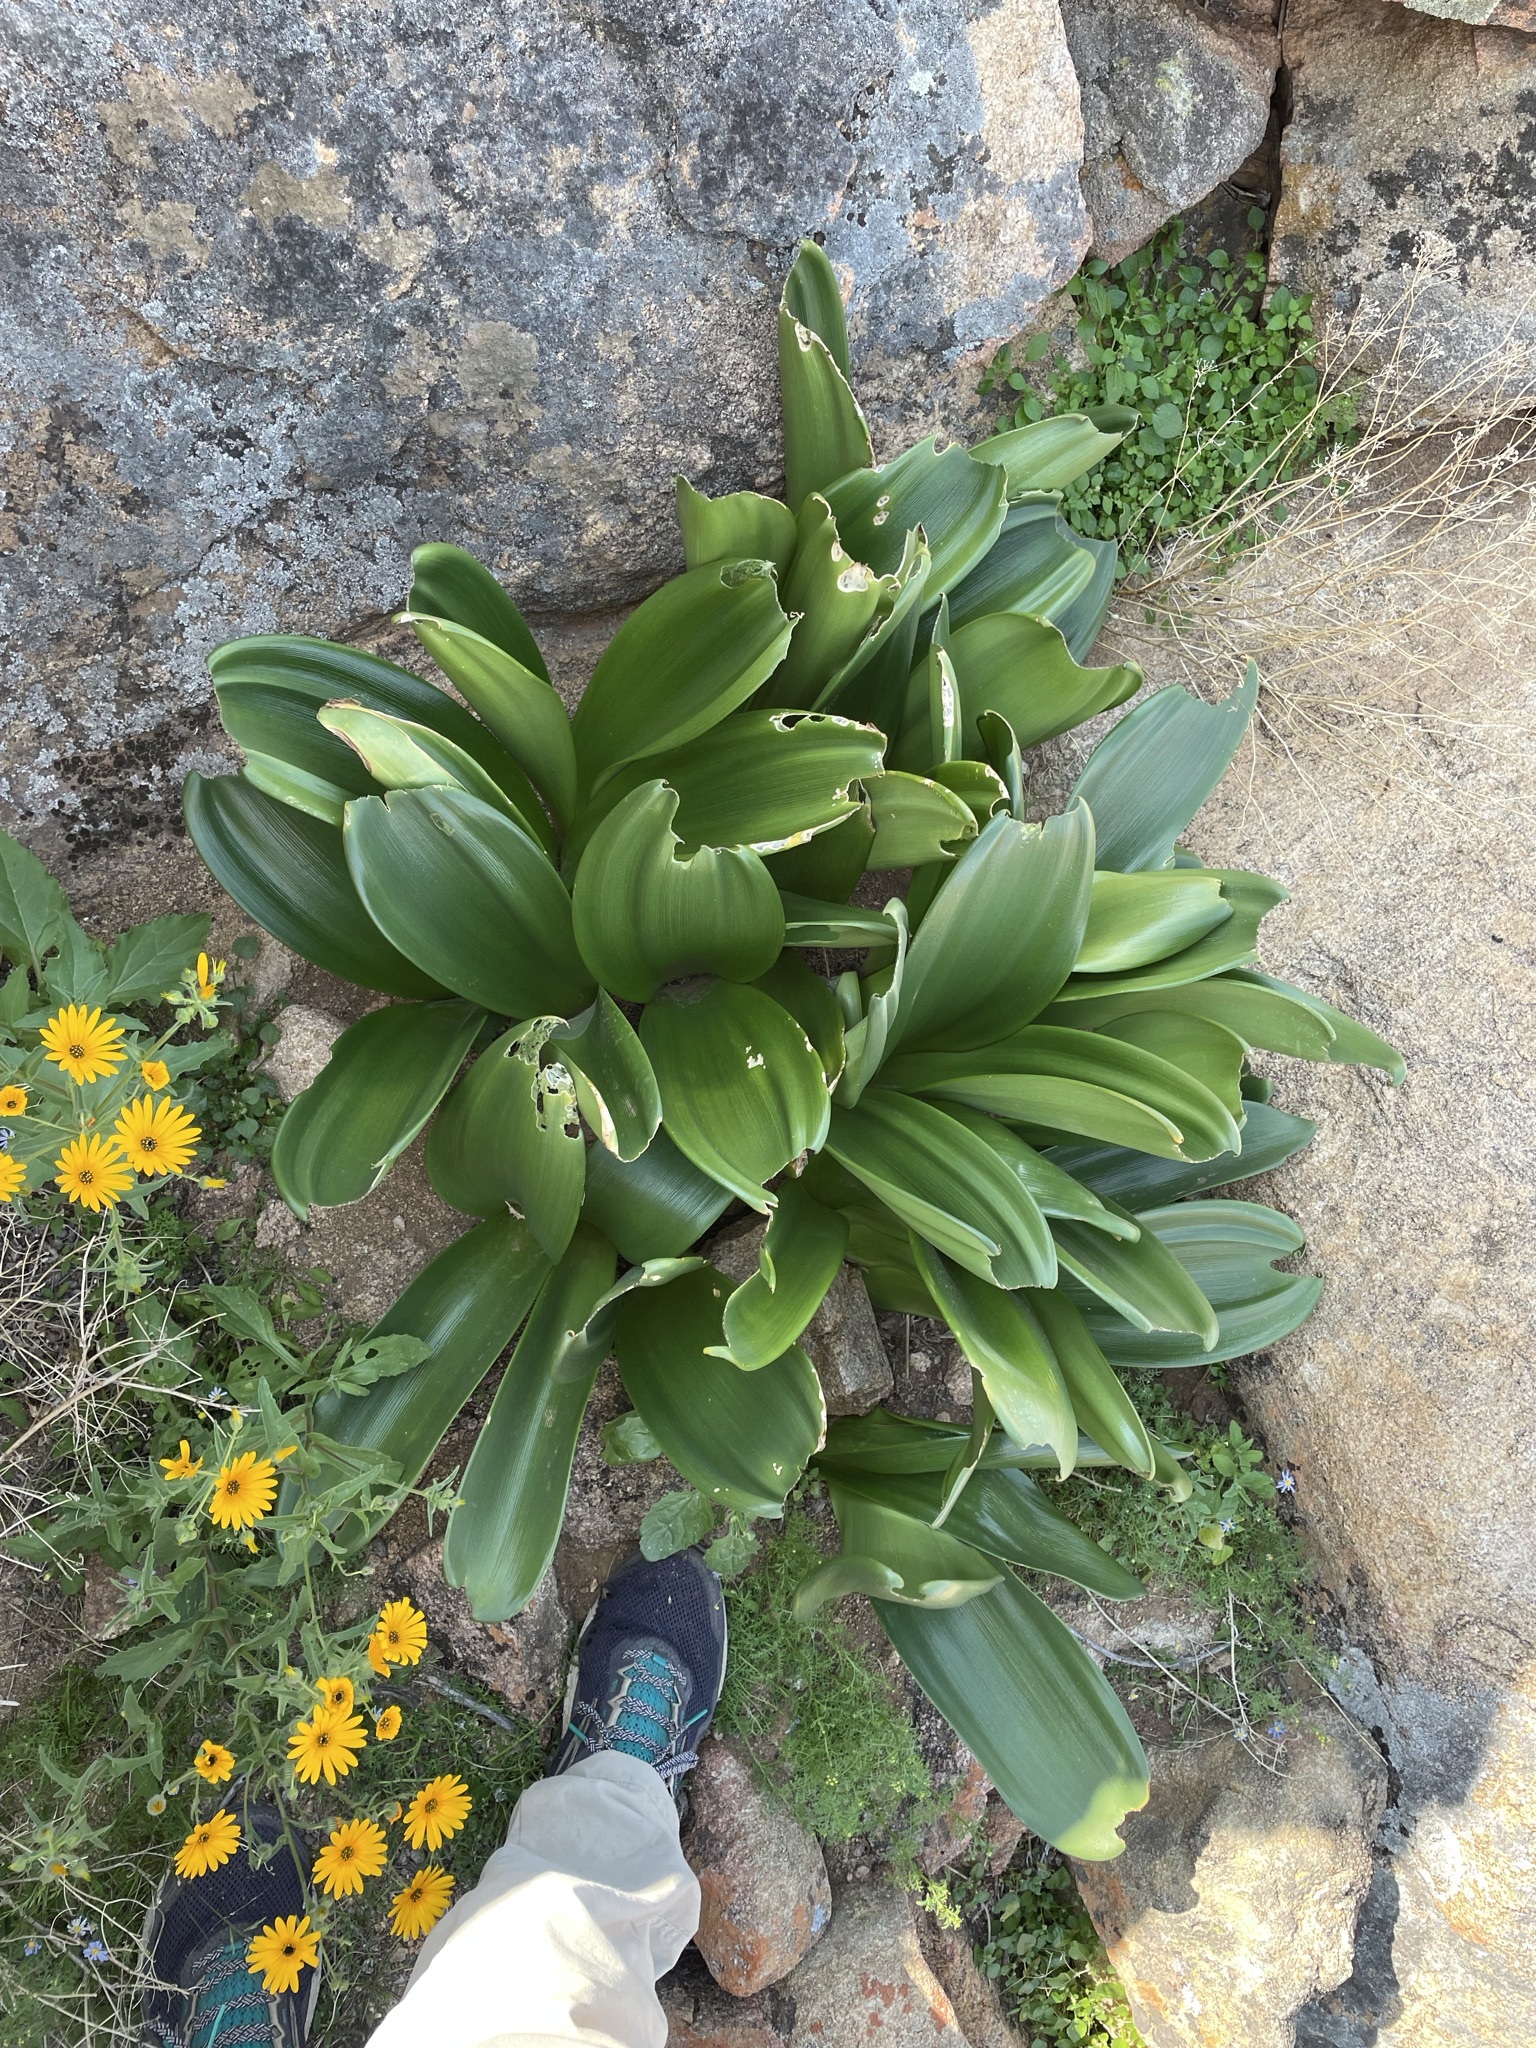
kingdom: Plantae
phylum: Tracheophyta
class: Liliopsida
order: Asparagales
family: Amaryllidaceae
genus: Haemanthus
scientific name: Haemanthus coccineus
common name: Cape-tulip
